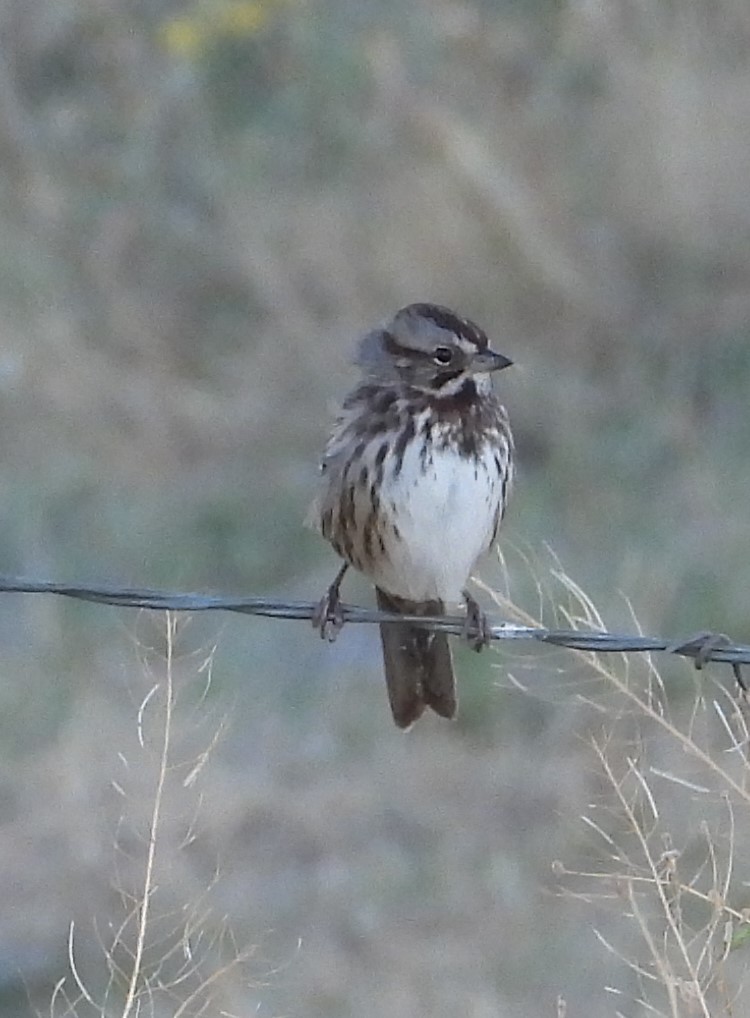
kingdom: Animalia
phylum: Chordata
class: Aves
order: Passeriformes
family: Passerellidae
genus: Melospiza
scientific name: Melospiza melodia
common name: Song sparrow
